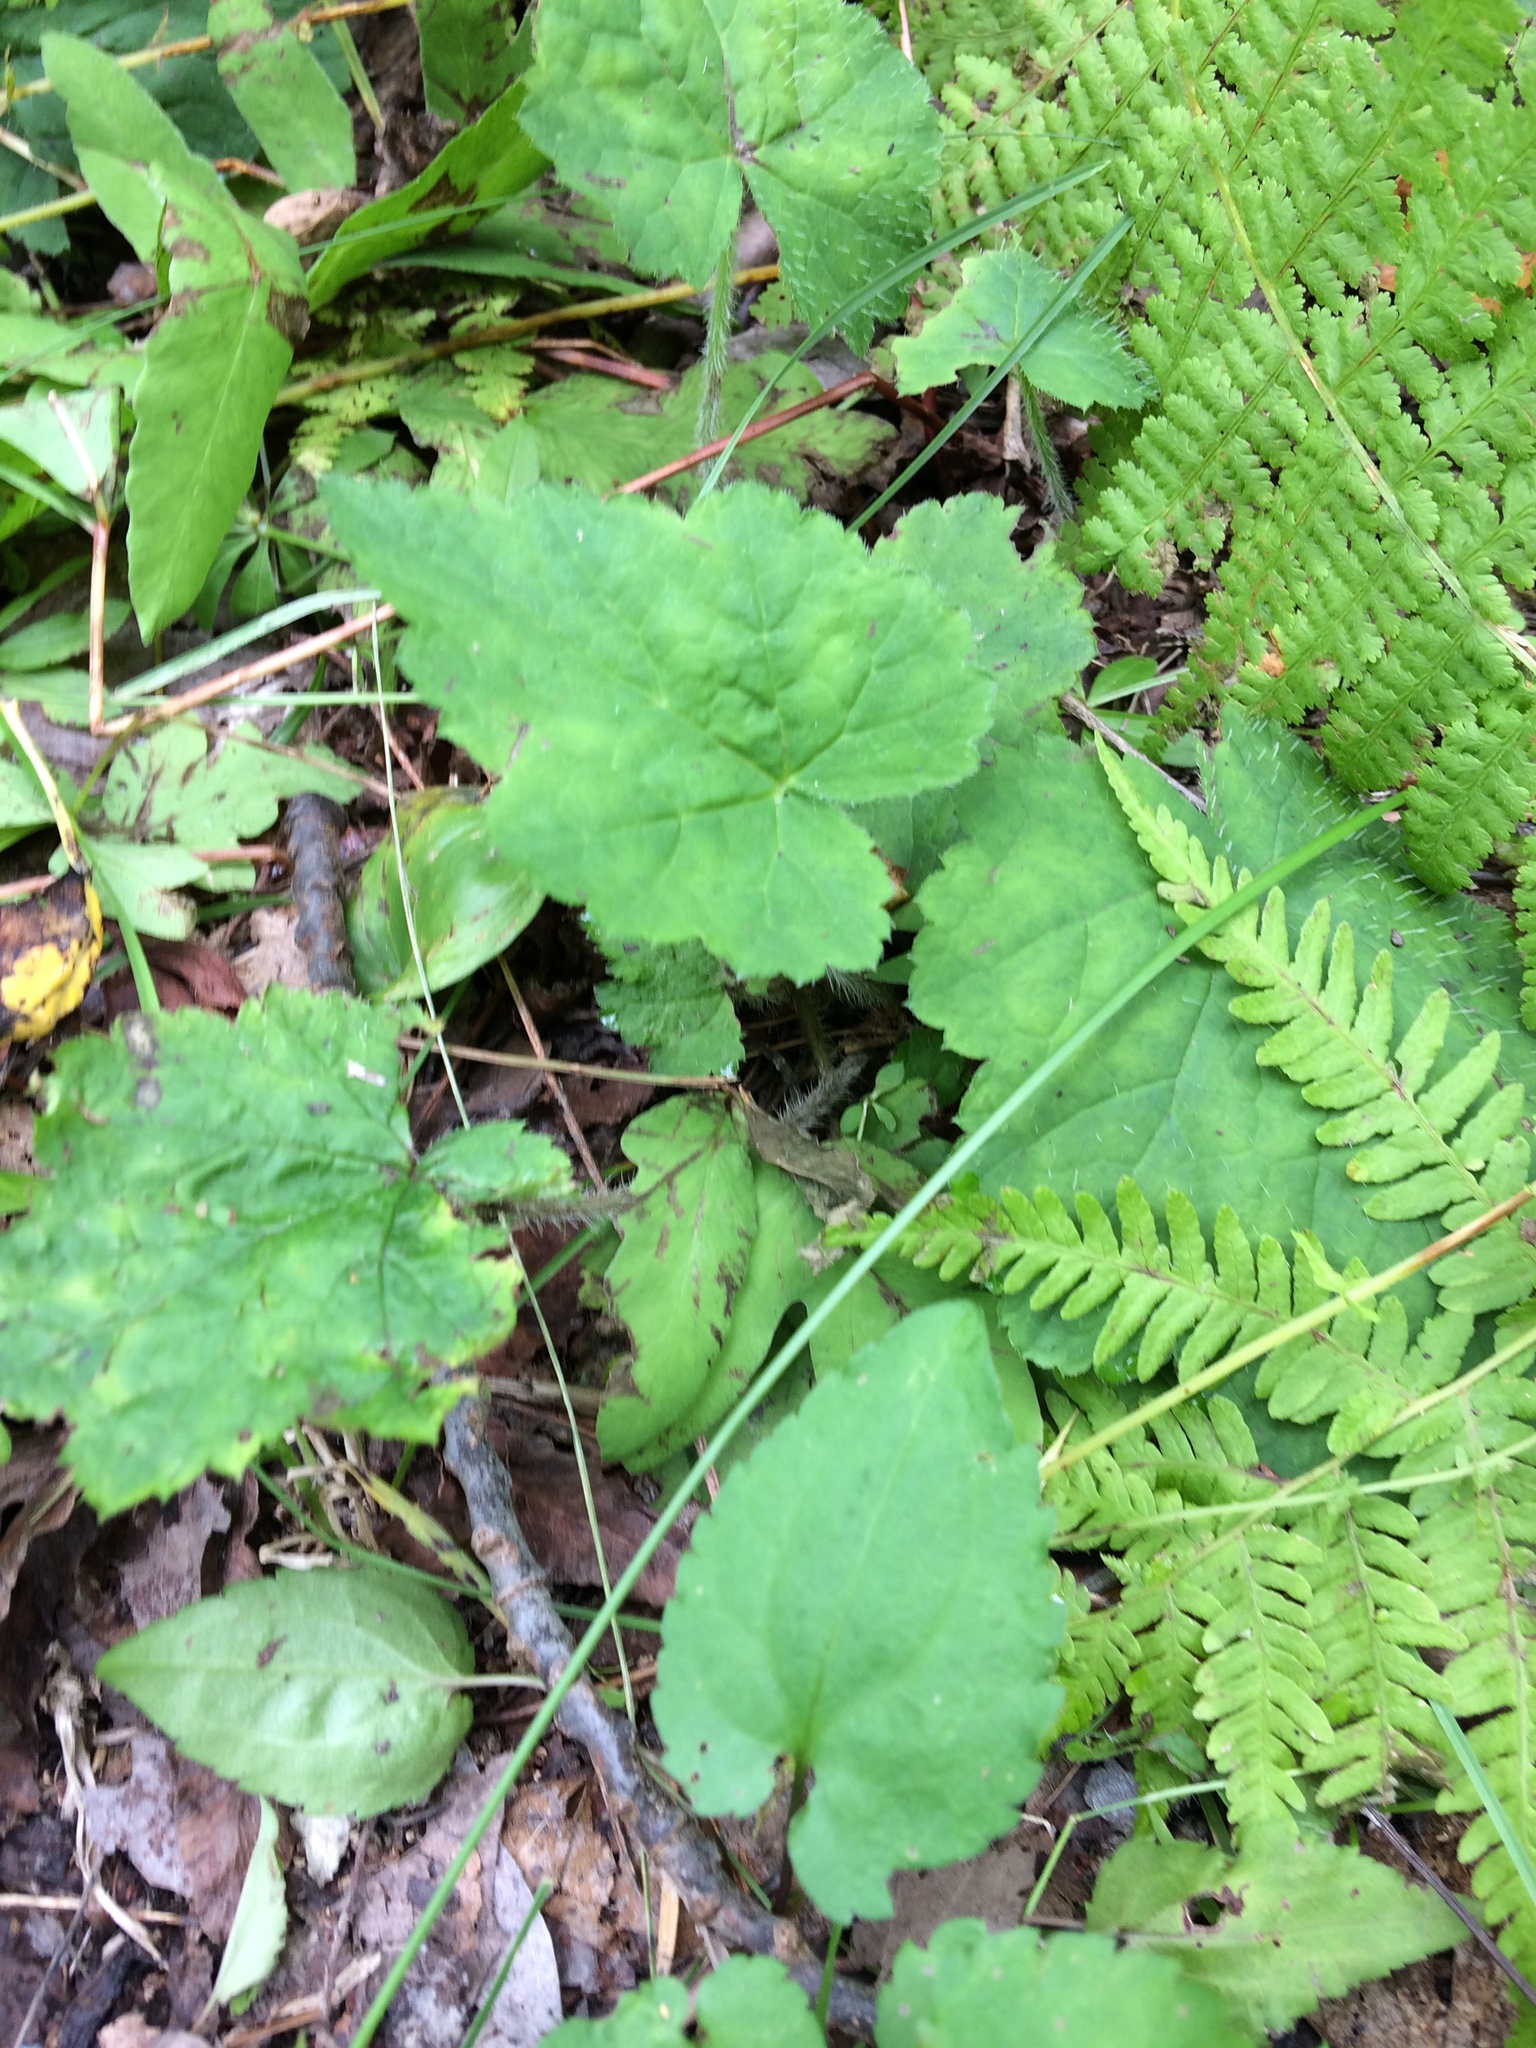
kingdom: Plantae
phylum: Tracheophyta
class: Magnoliopsida
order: Saxifragales
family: Saxifragaceae
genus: Tiarella
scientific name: Tiarella stolonifera
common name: Stoloniferous foamflower
